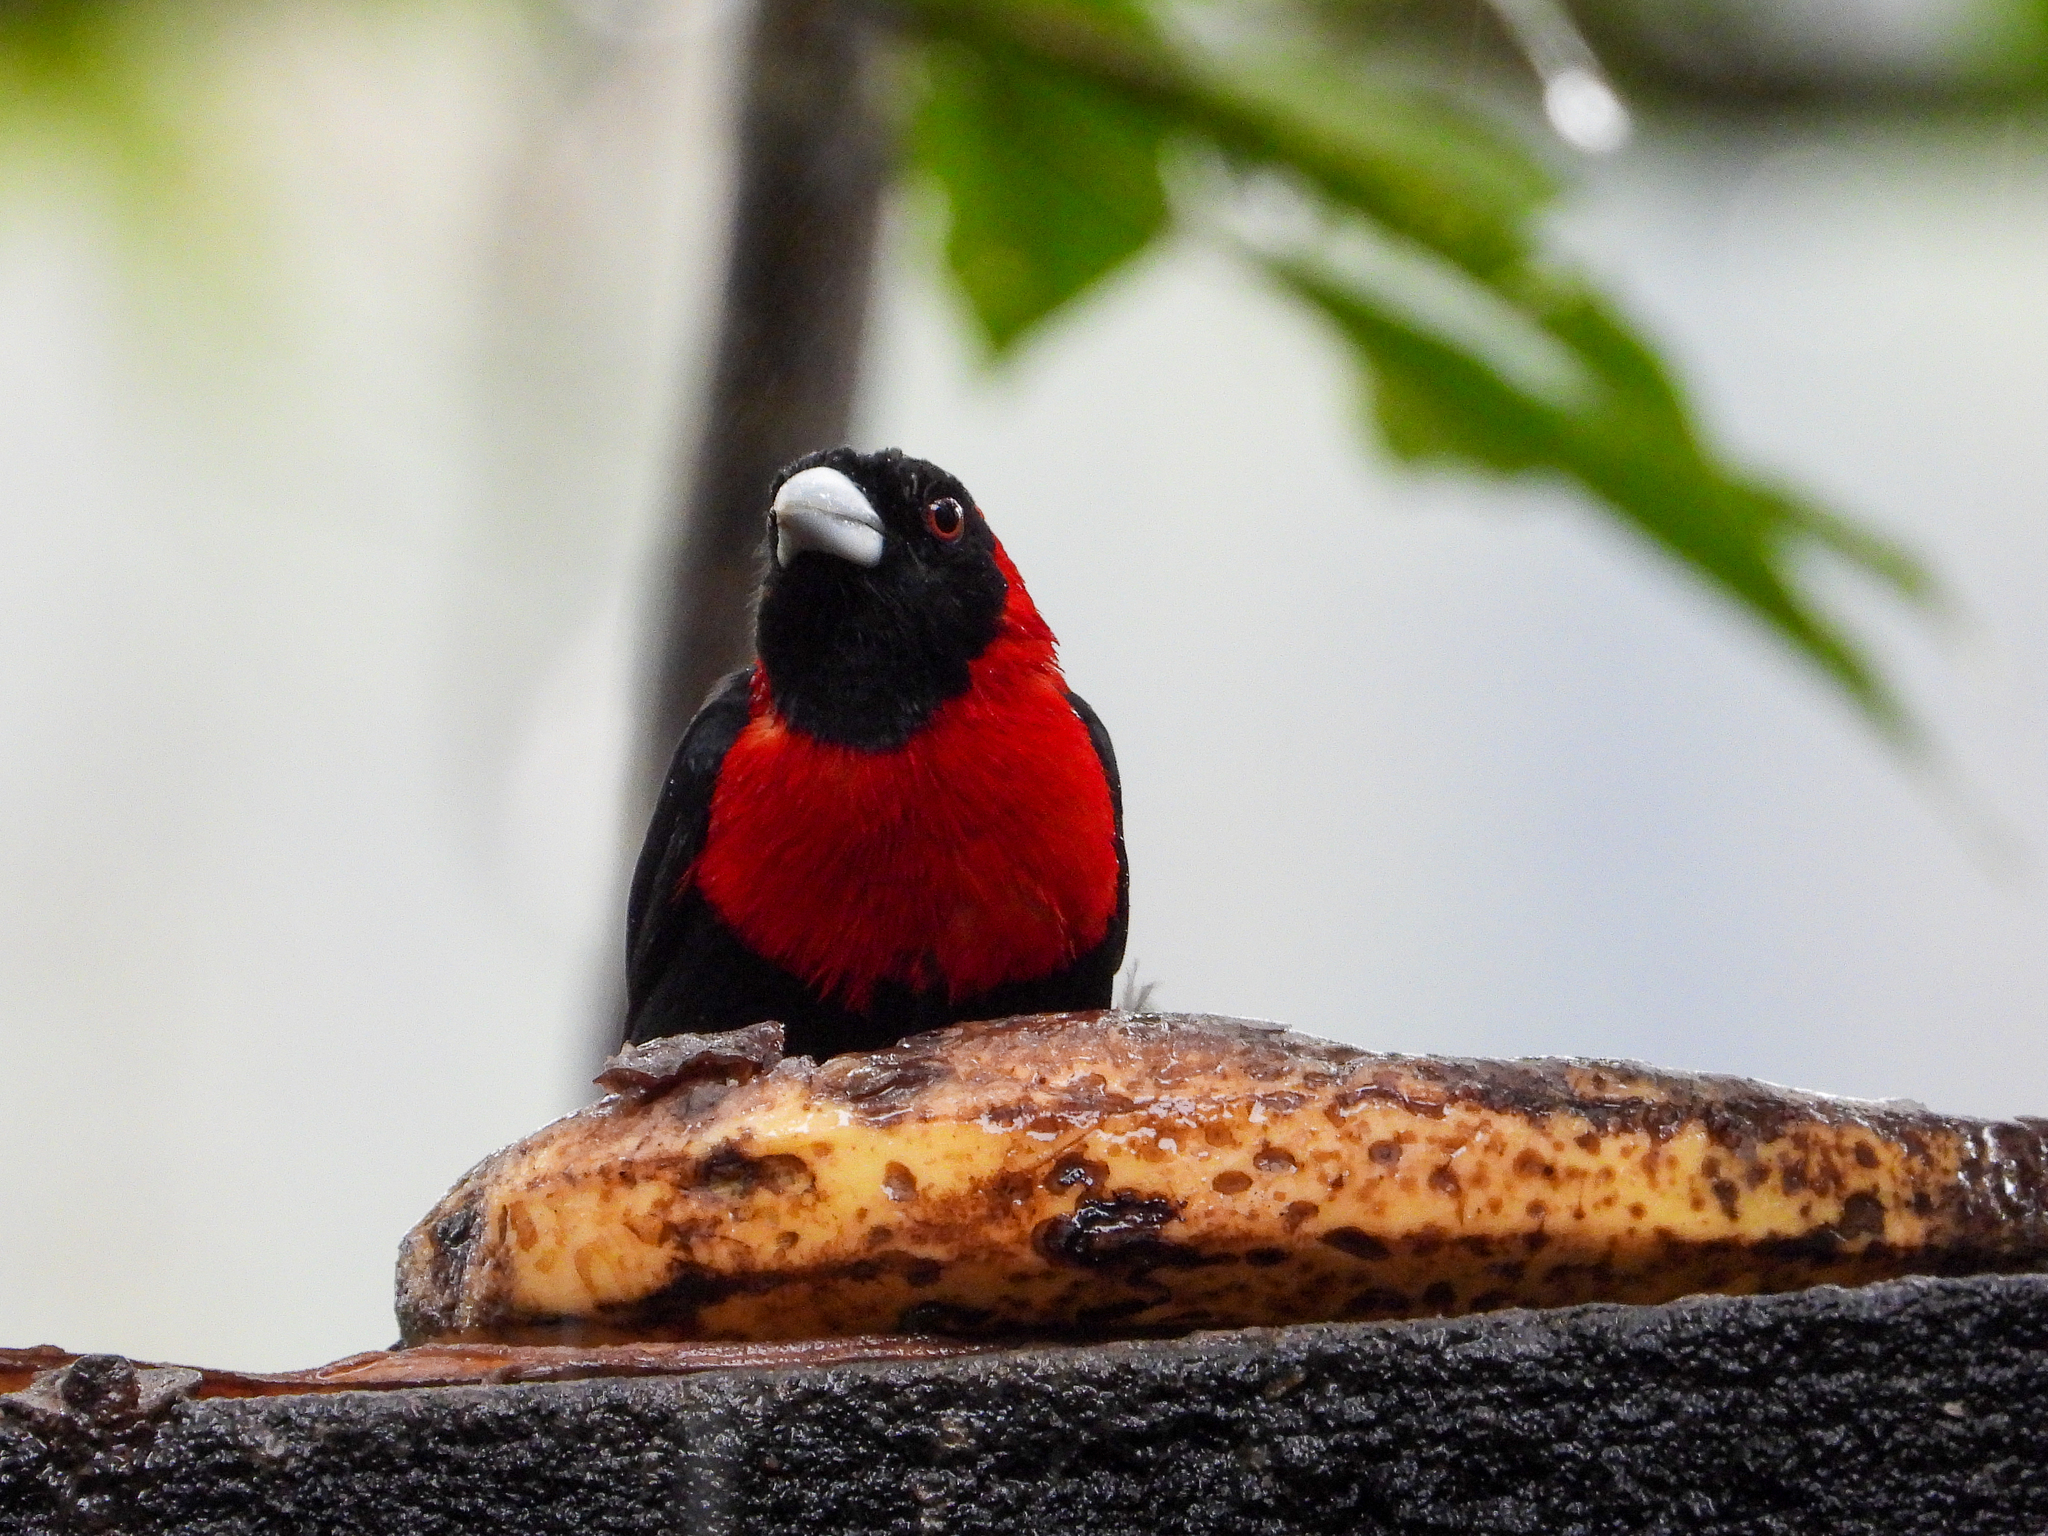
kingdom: Animalia
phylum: Chordata
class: Aves
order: Passeriformes
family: Thraupidae
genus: Ramphocelus
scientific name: Ramphocelus sanguinolentus
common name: Crimson-collared tanager
